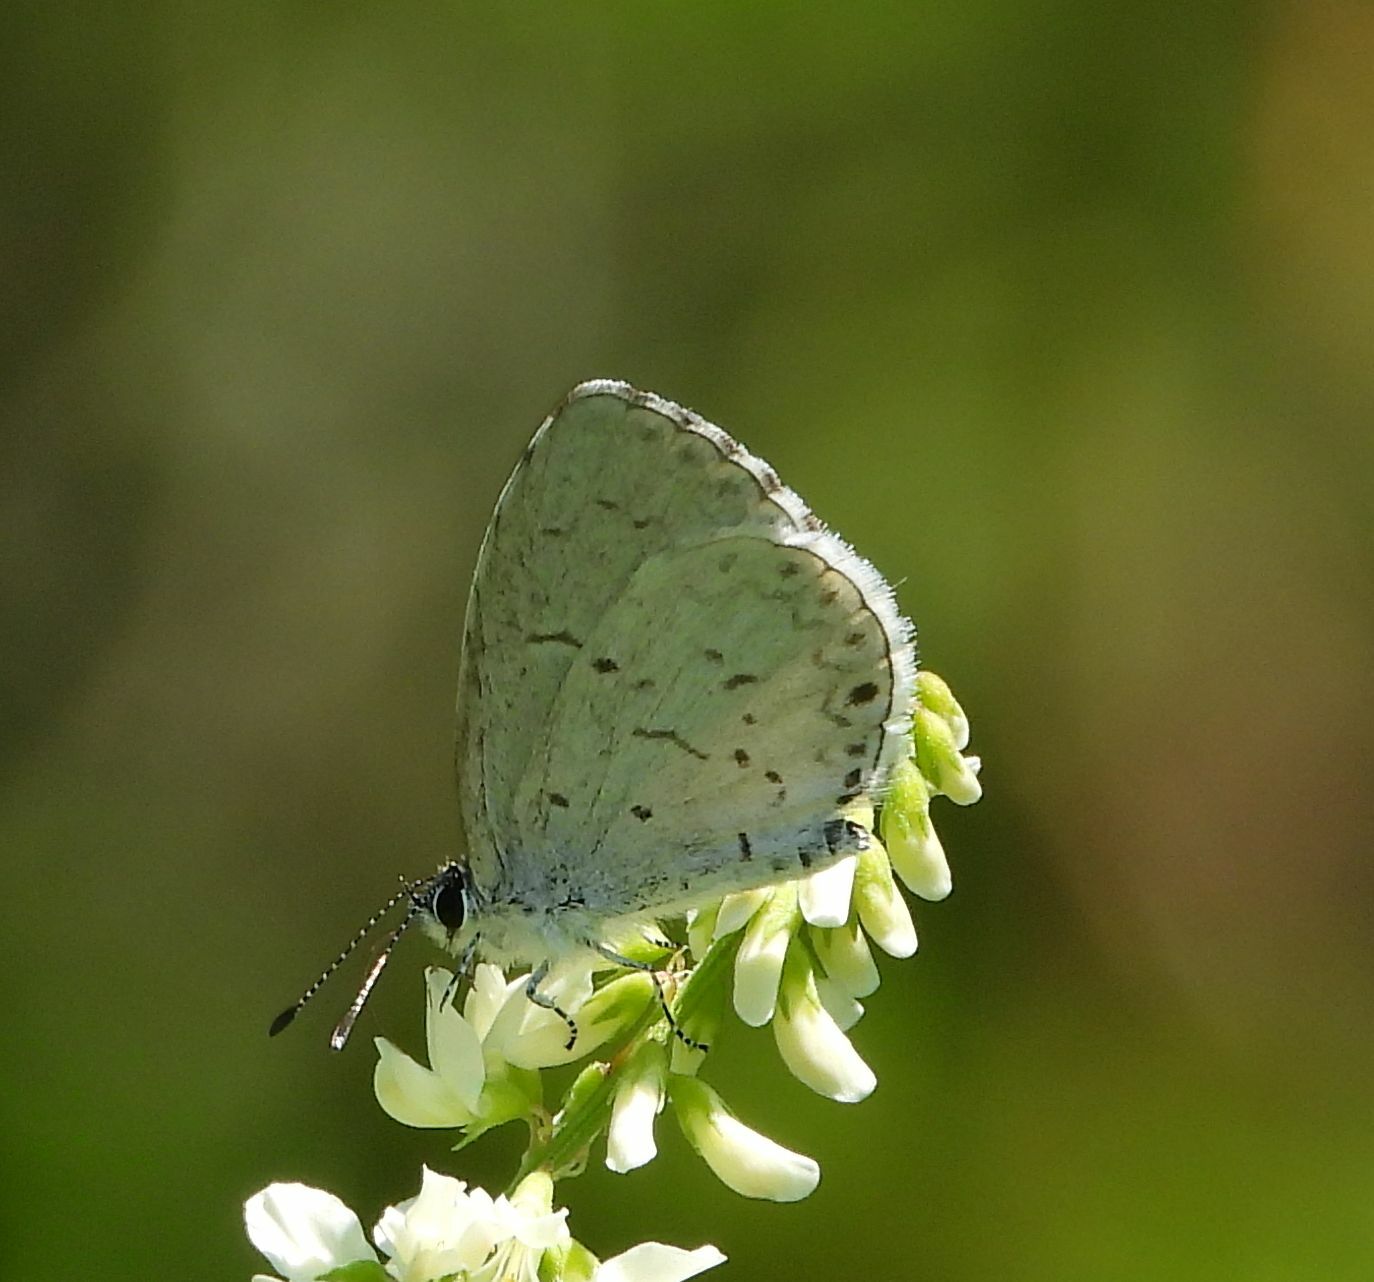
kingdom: Animalia
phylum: Arthropoda
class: Insecta
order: Lepidoptera
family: Lycaenidae
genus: Celastrina
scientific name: Celastrina lucia
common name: Lucia azure
